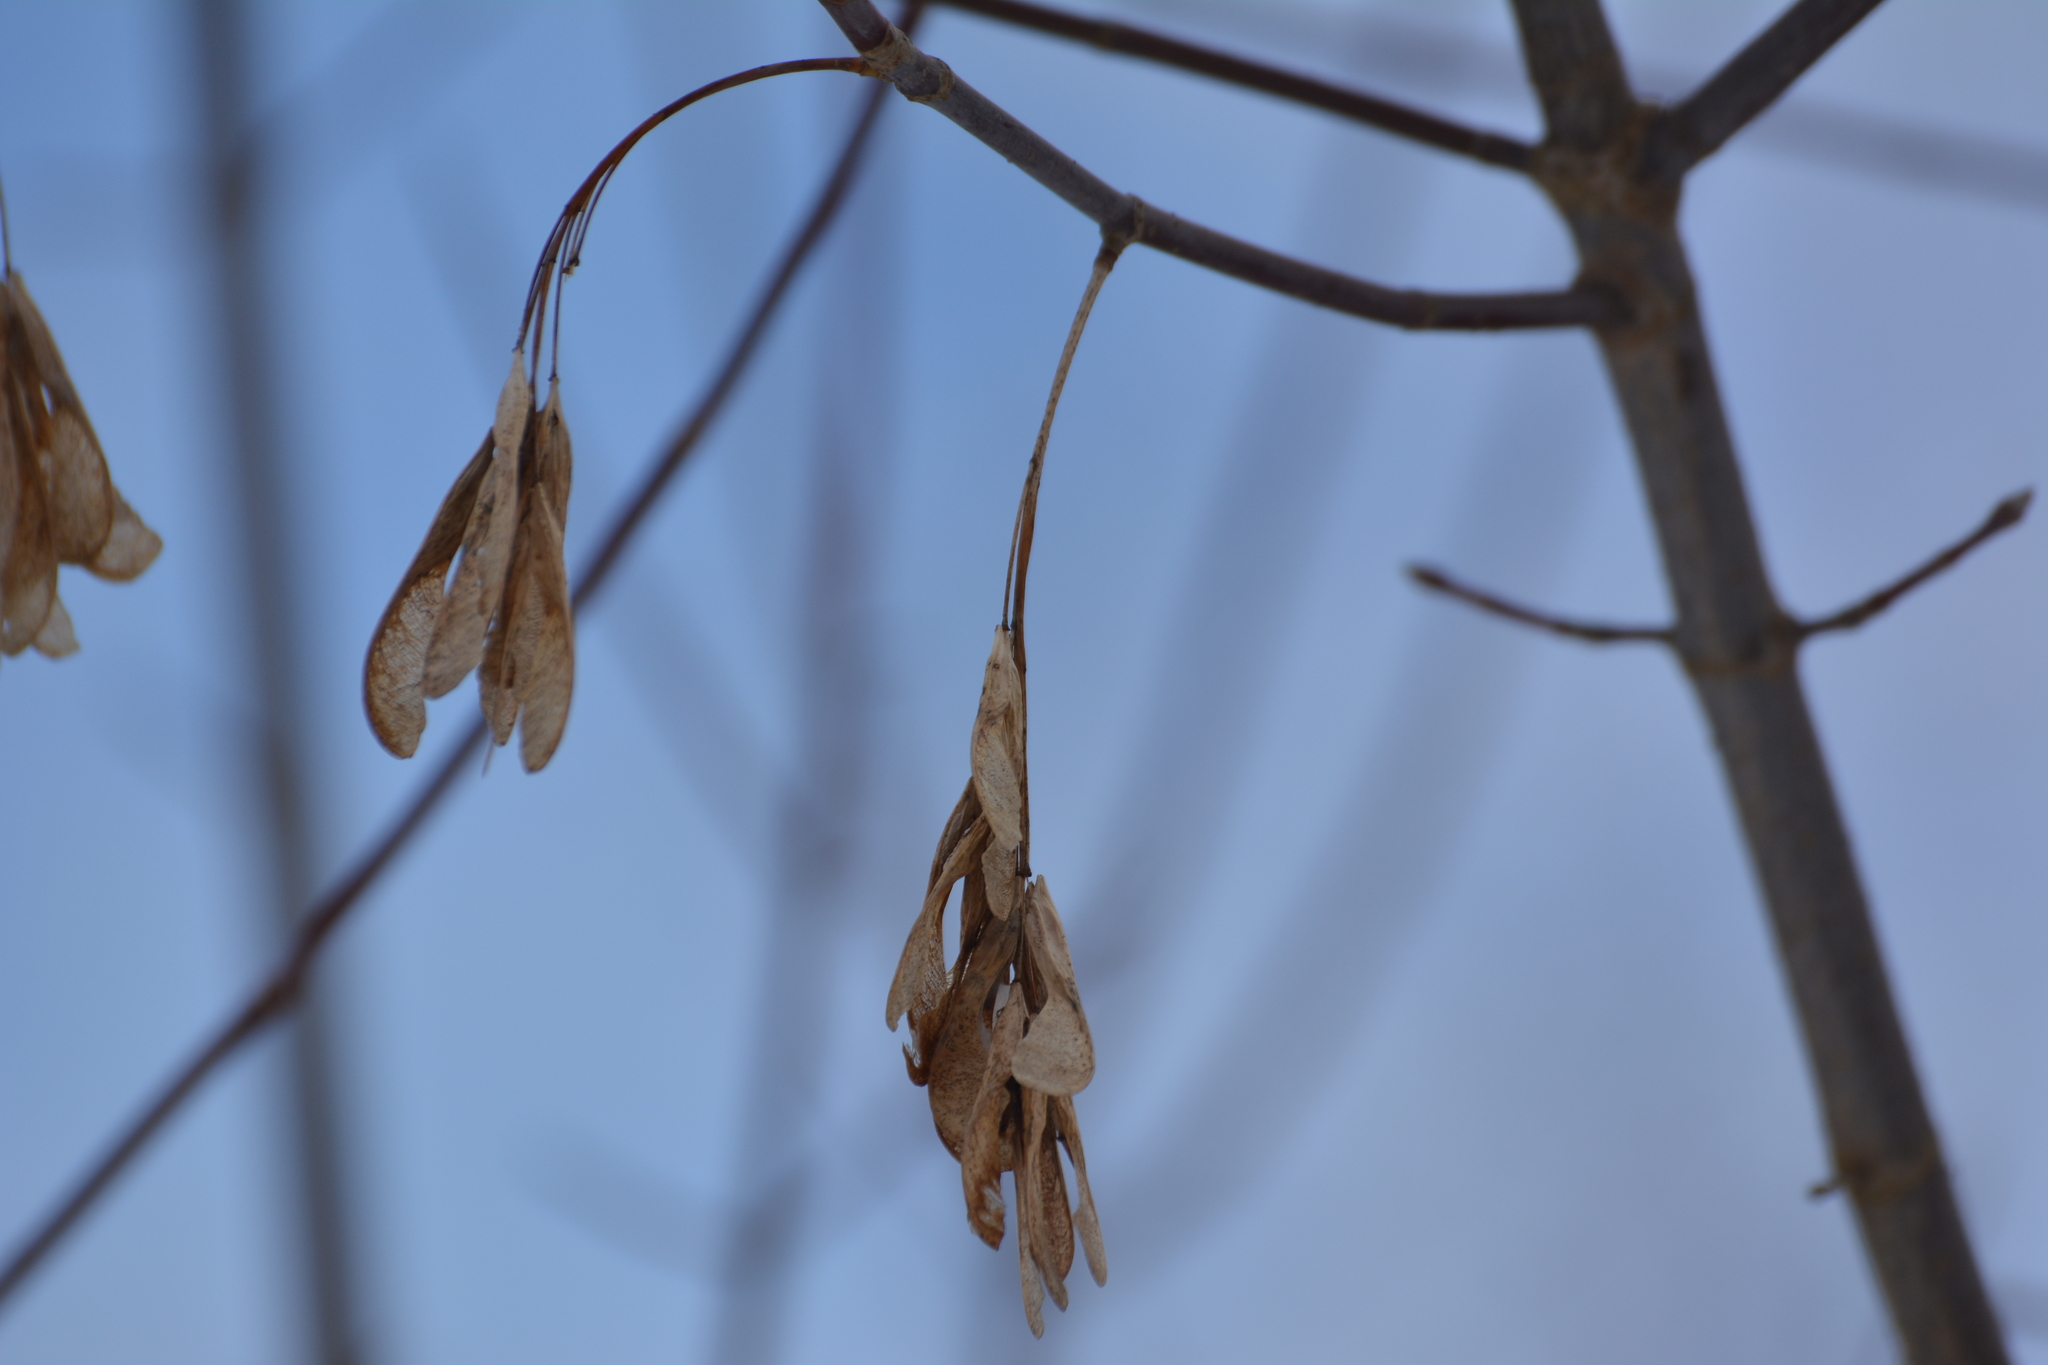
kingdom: Plantae
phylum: Tracheophyta
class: Magnoliopsida
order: Sapindales
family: Sapindaceae
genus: Acer
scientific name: Acer negundo
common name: Ashleaf maple
